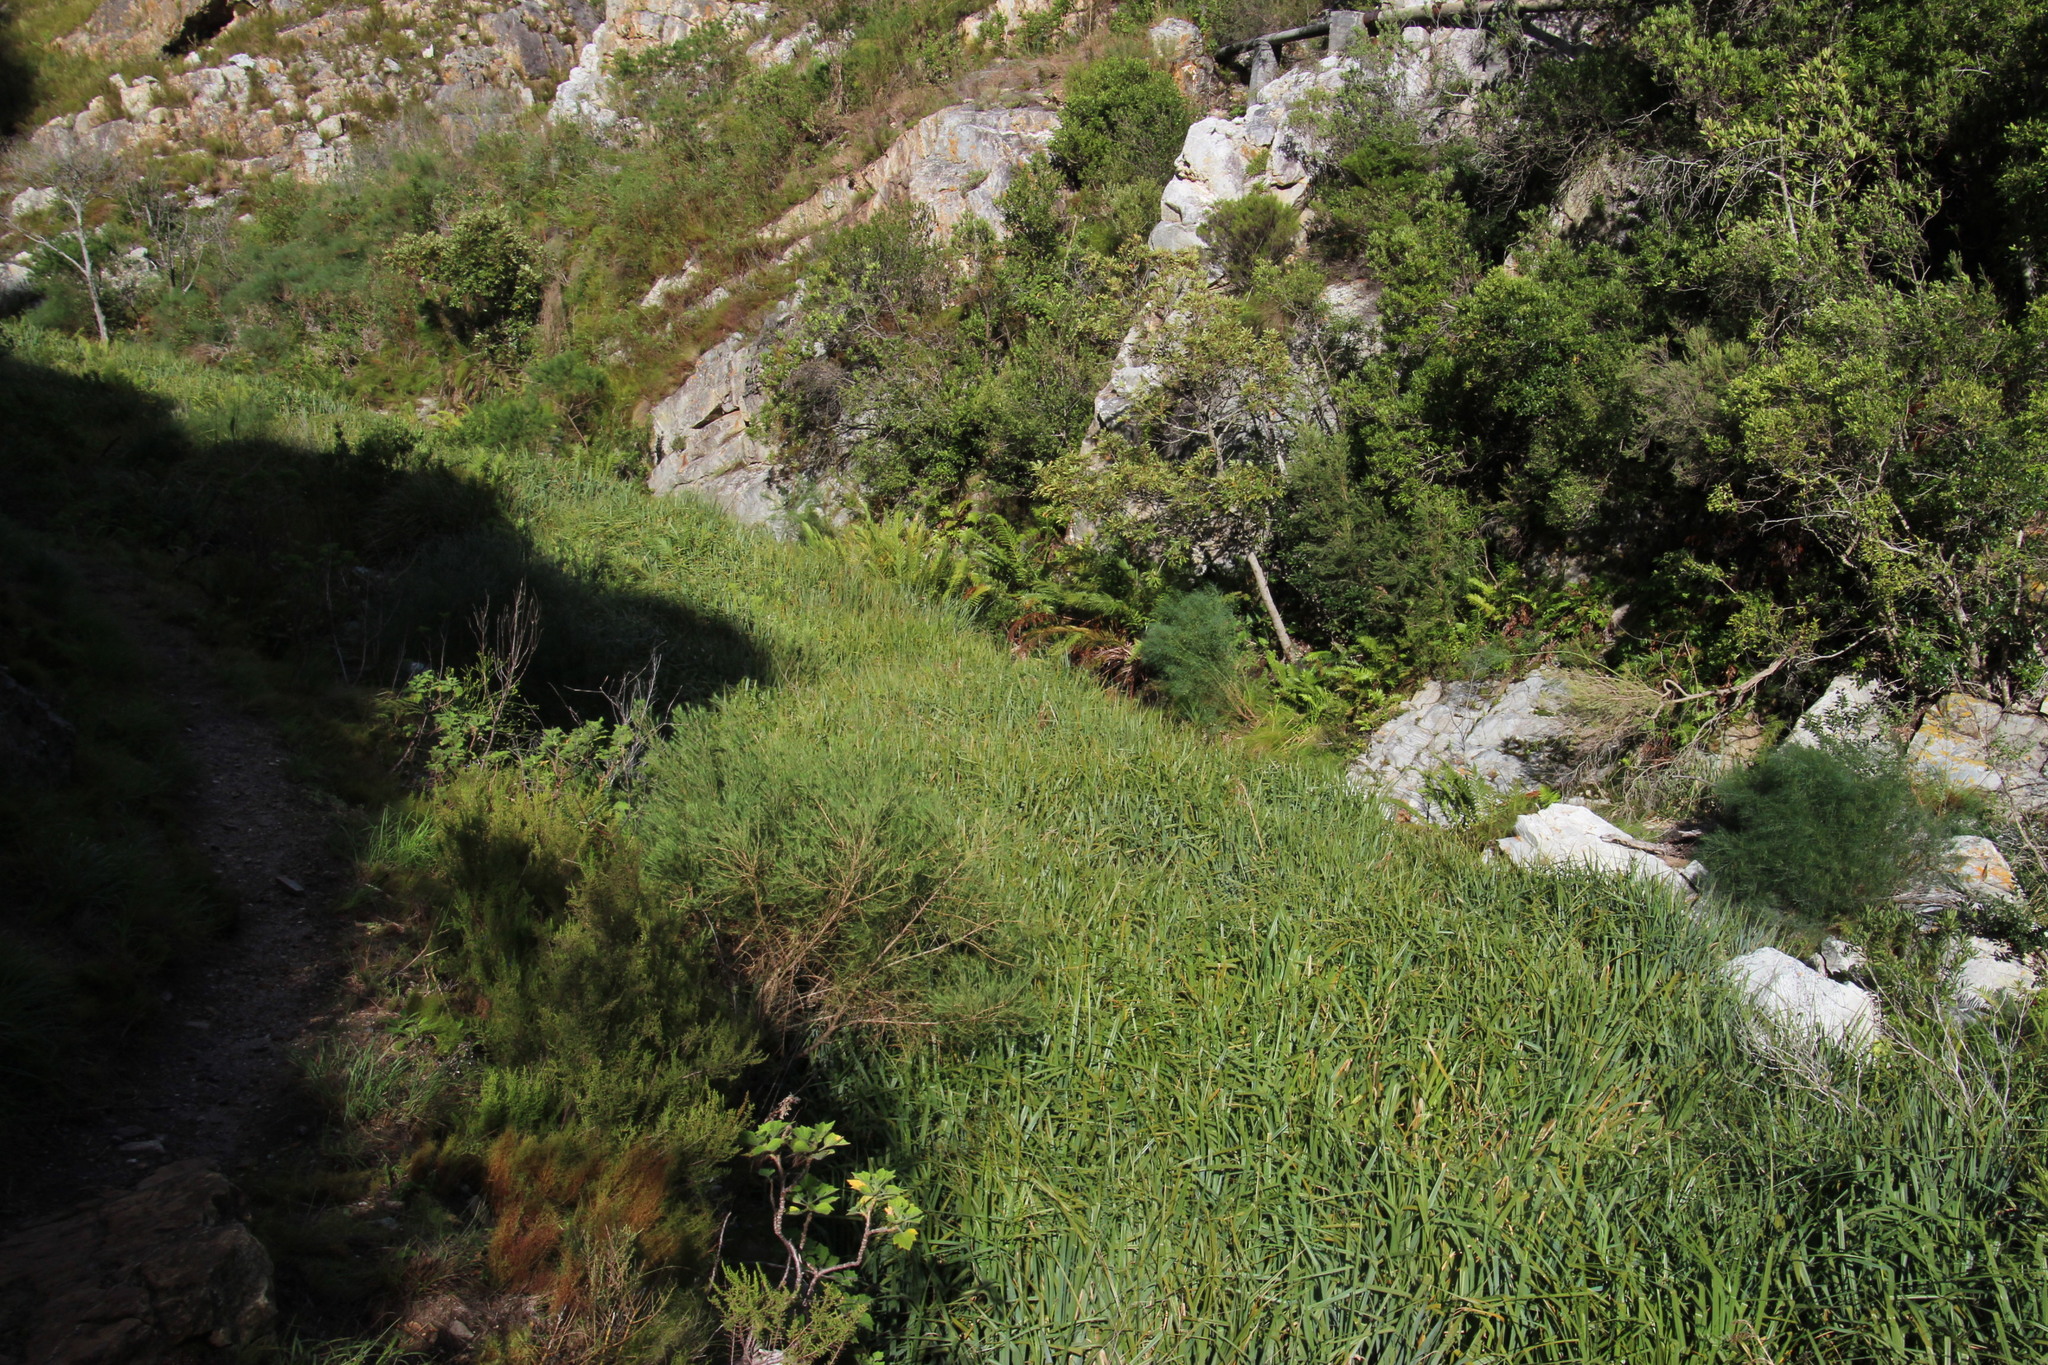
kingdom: Plantae
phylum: Tracheophyta
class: Liliopsida
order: Poales
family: Thurniaceae
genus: Prionium
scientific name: Prionium serratum
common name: Palmiet
